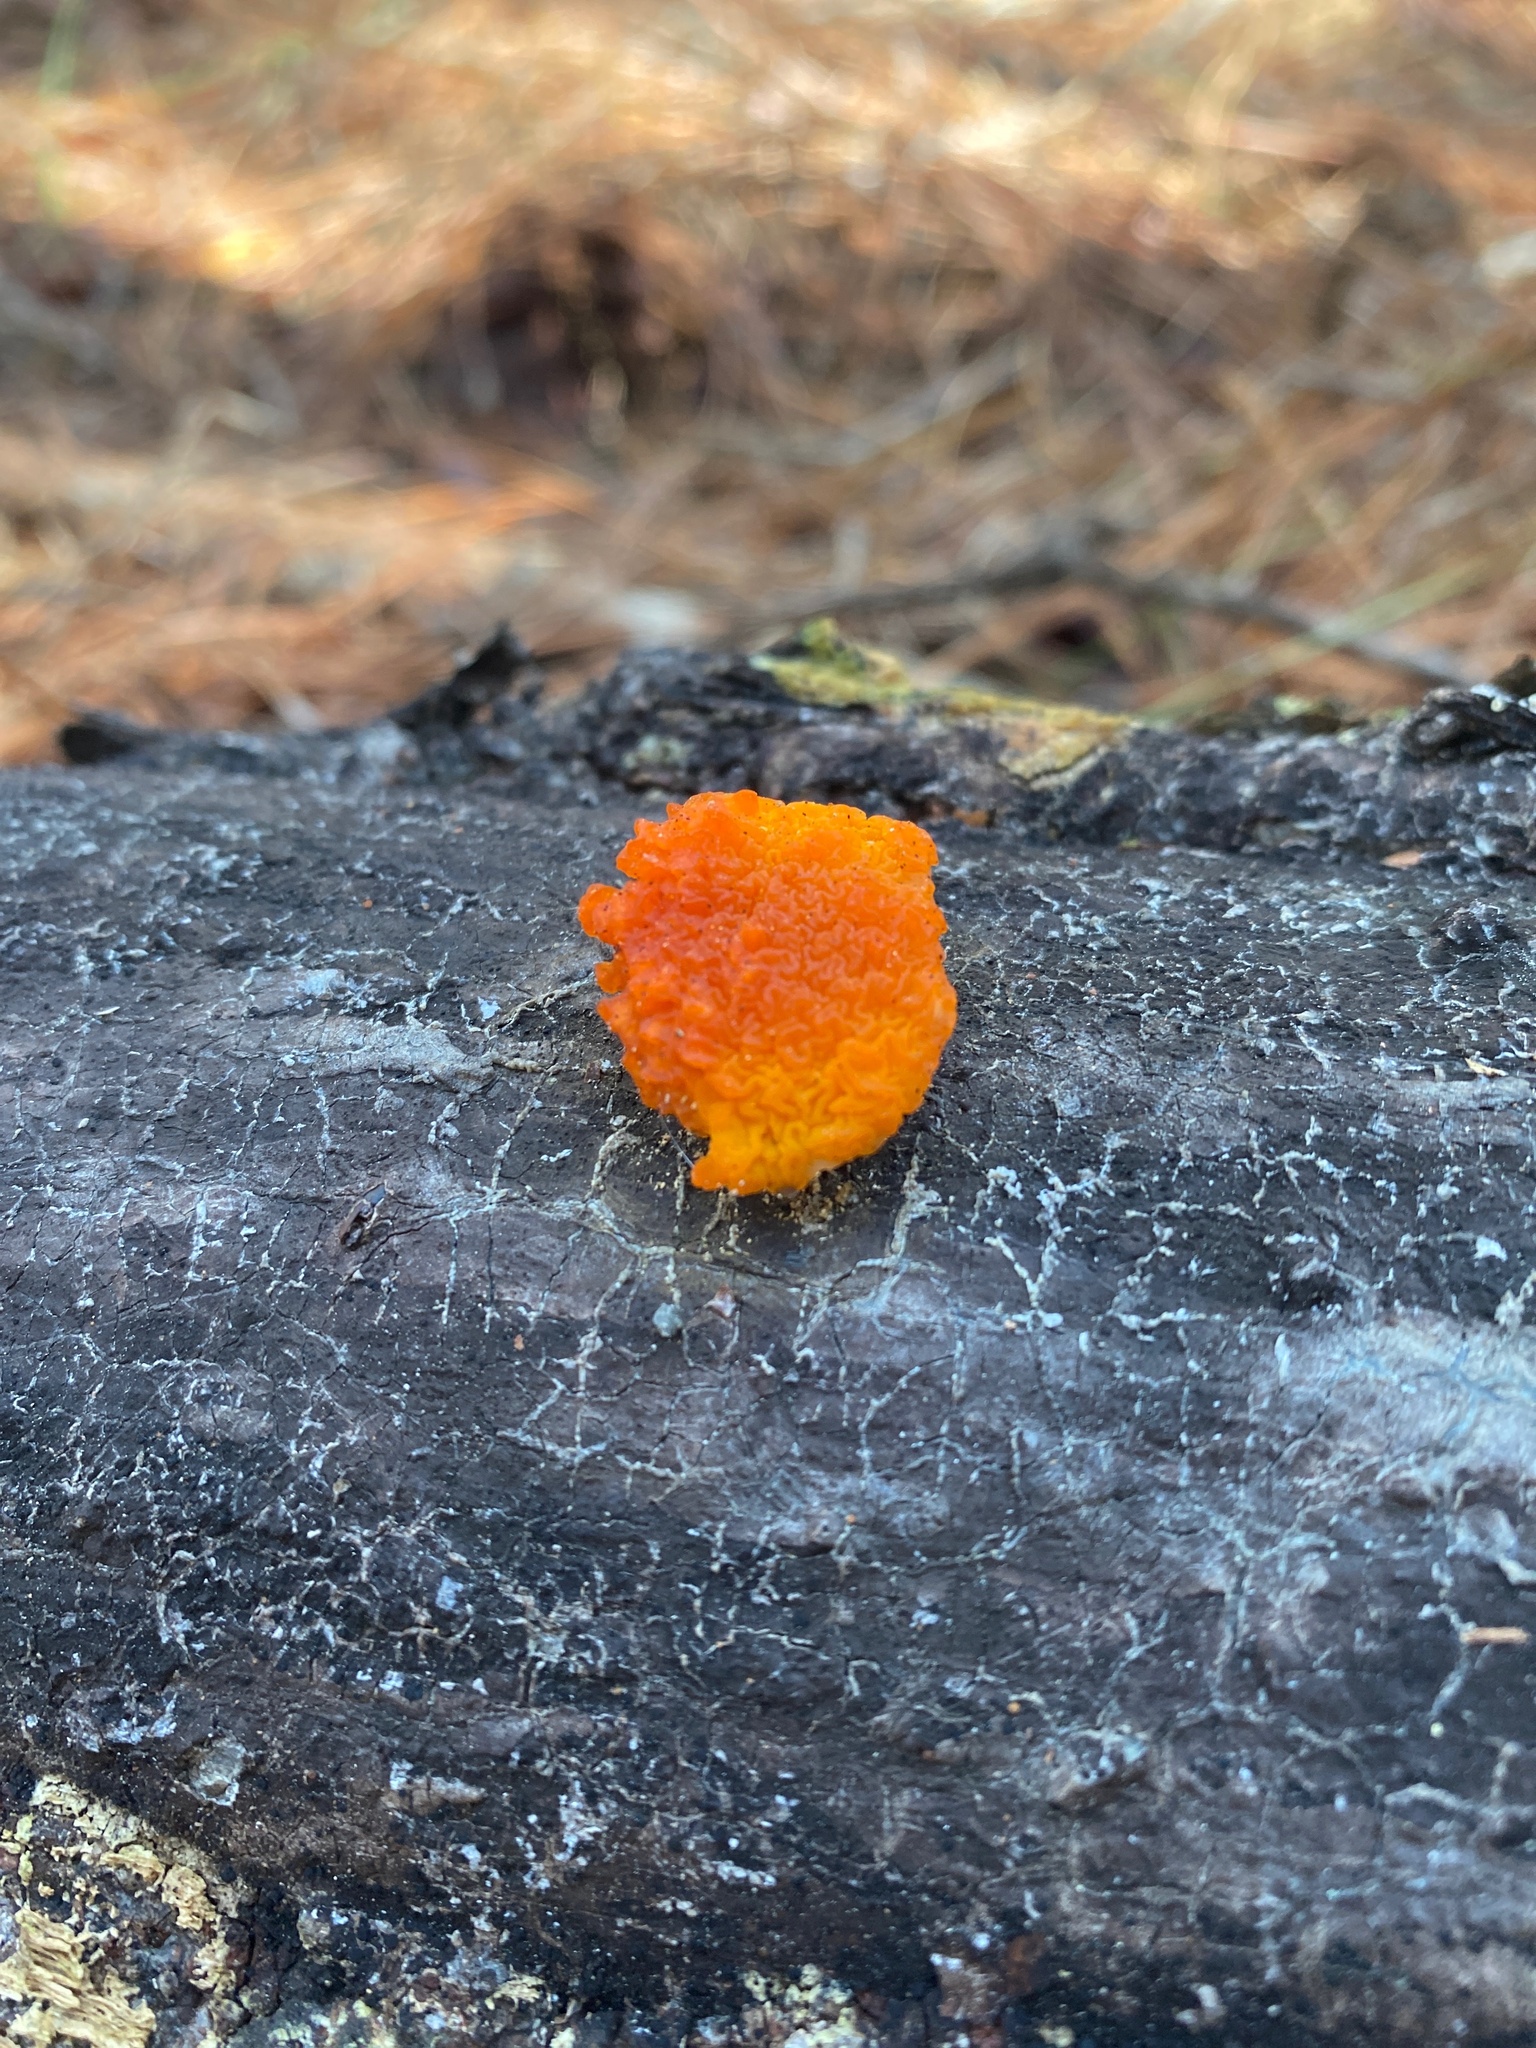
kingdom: Fungi
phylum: Basidiomycota
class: Dacrymycetes
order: Dacrymycetales
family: Dacrymycetaceae
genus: Dacrymyces
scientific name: Dacrymyces chrysospermus
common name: Orange jelly spot
